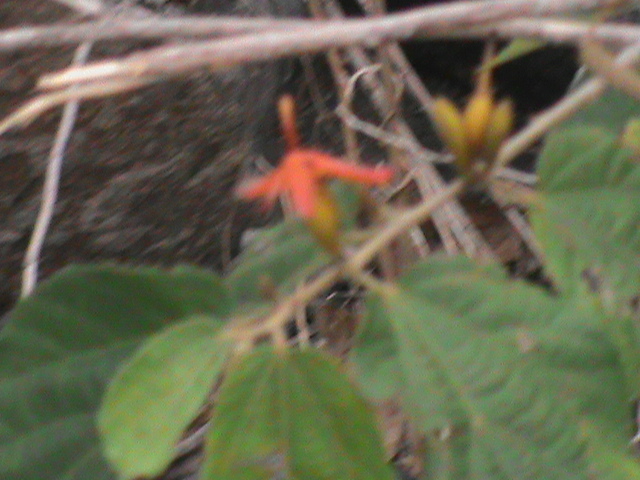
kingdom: Plantae
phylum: Tracheophyta
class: Magnoliopsida
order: Malvales
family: Malvaceae
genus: Helicteres
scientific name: Helicteres isora
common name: East indian screwtree
